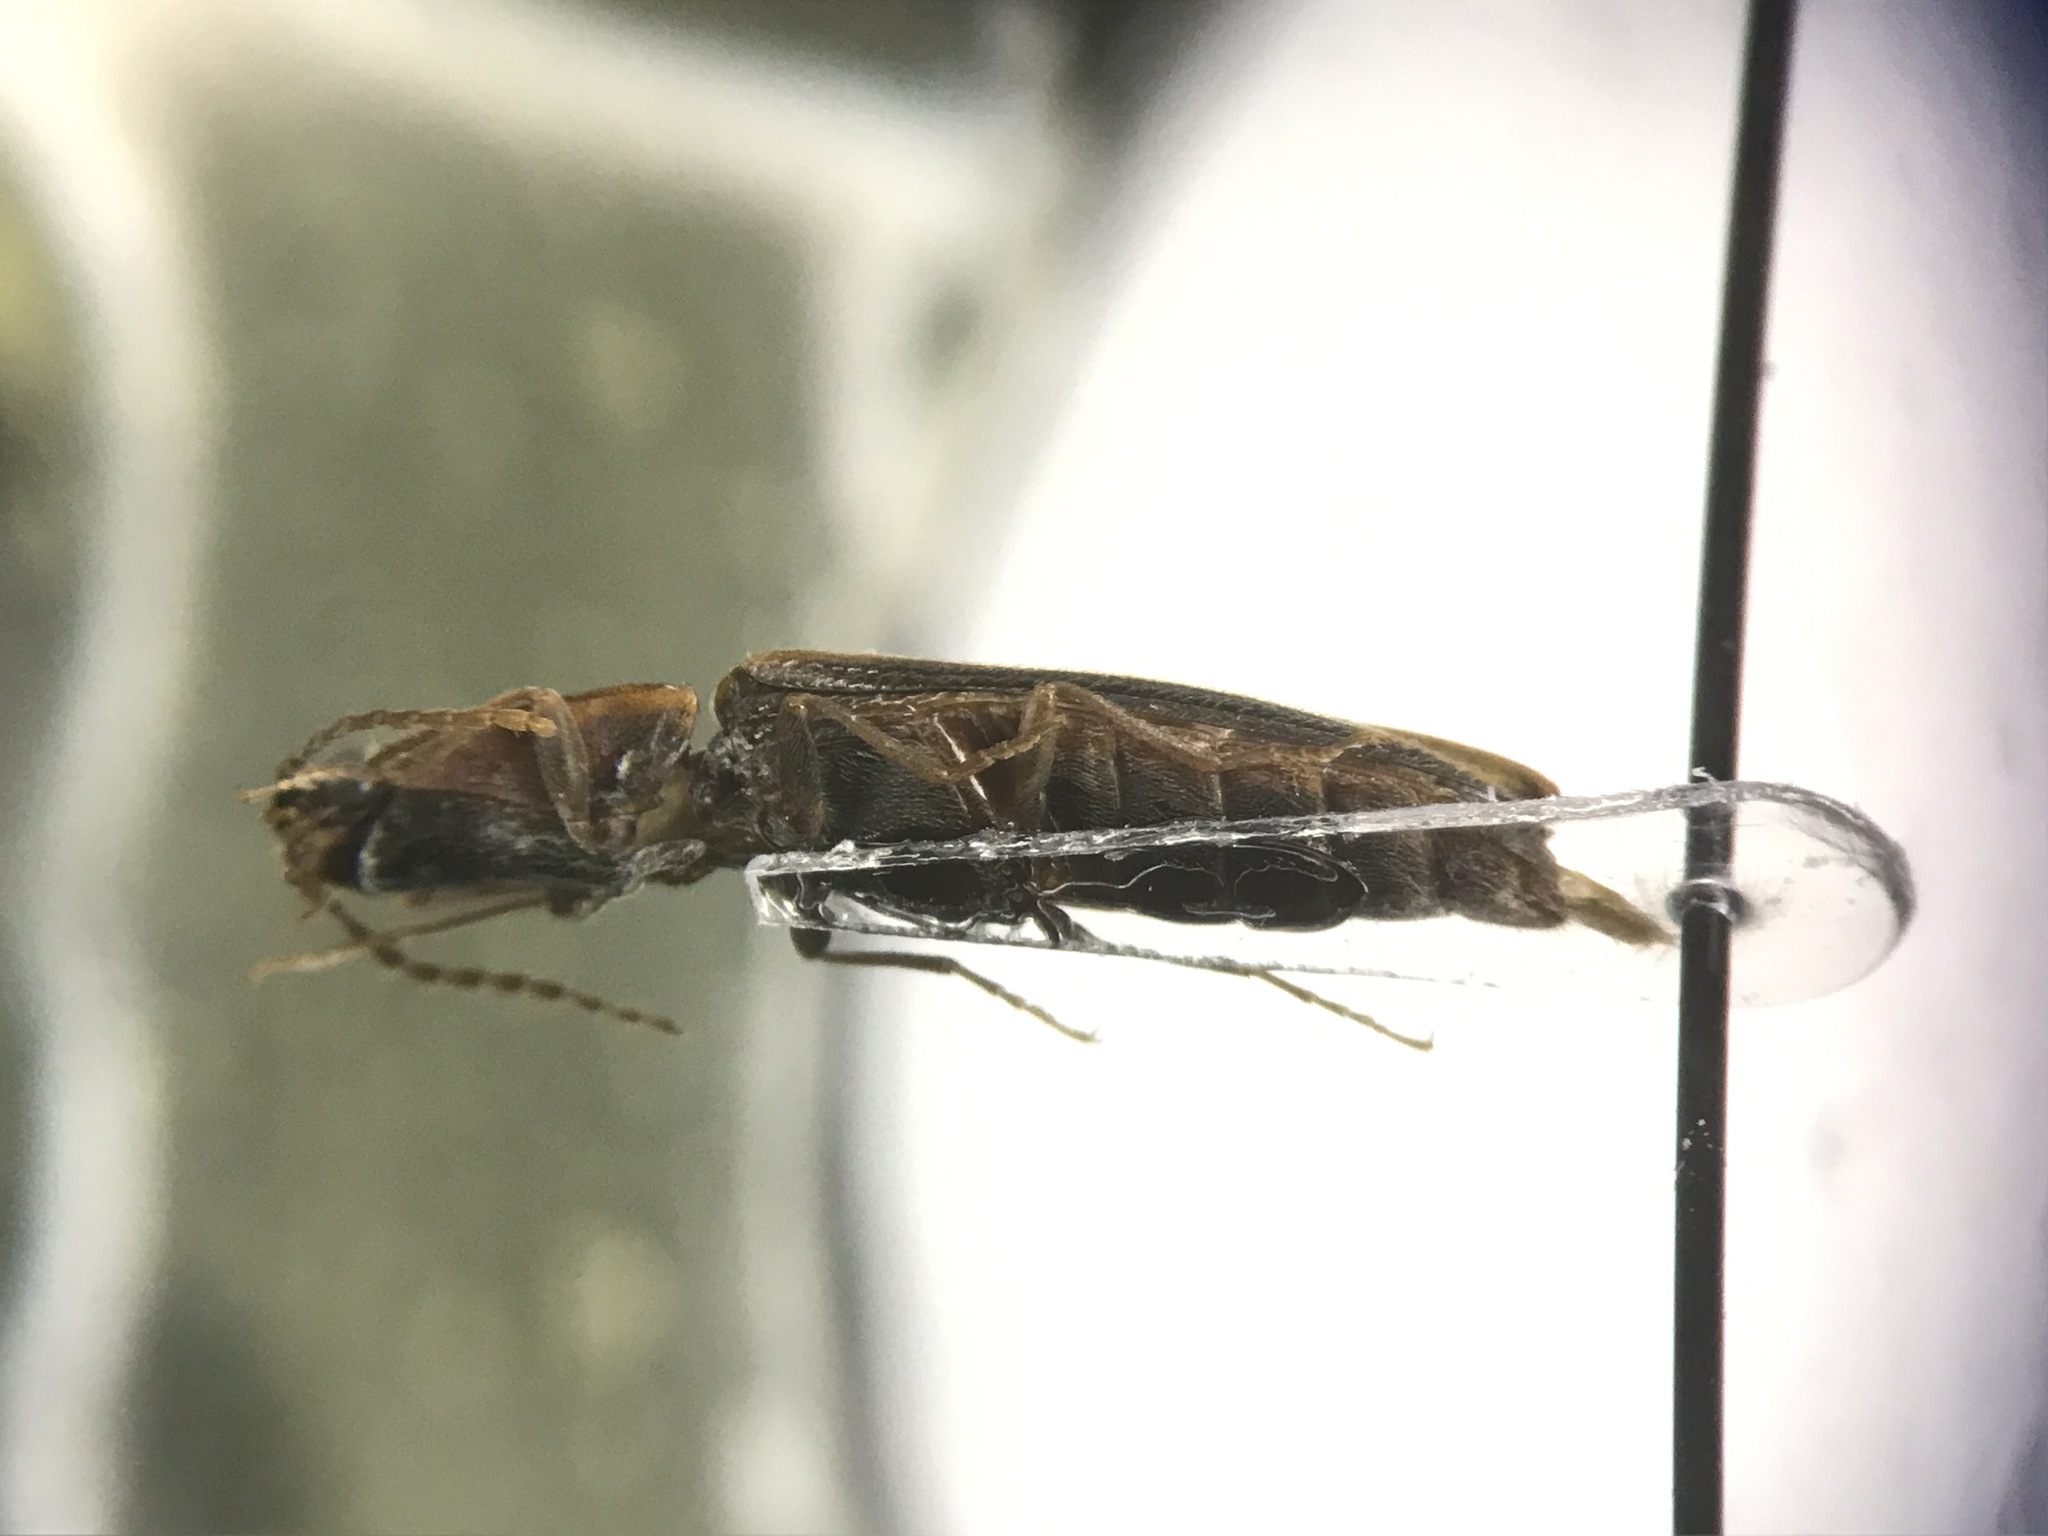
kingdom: Animalia
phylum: Arthropoda
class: Insecta
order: Coleoptera
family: Elateridae
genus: Athous
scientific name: Athous rufifrons
